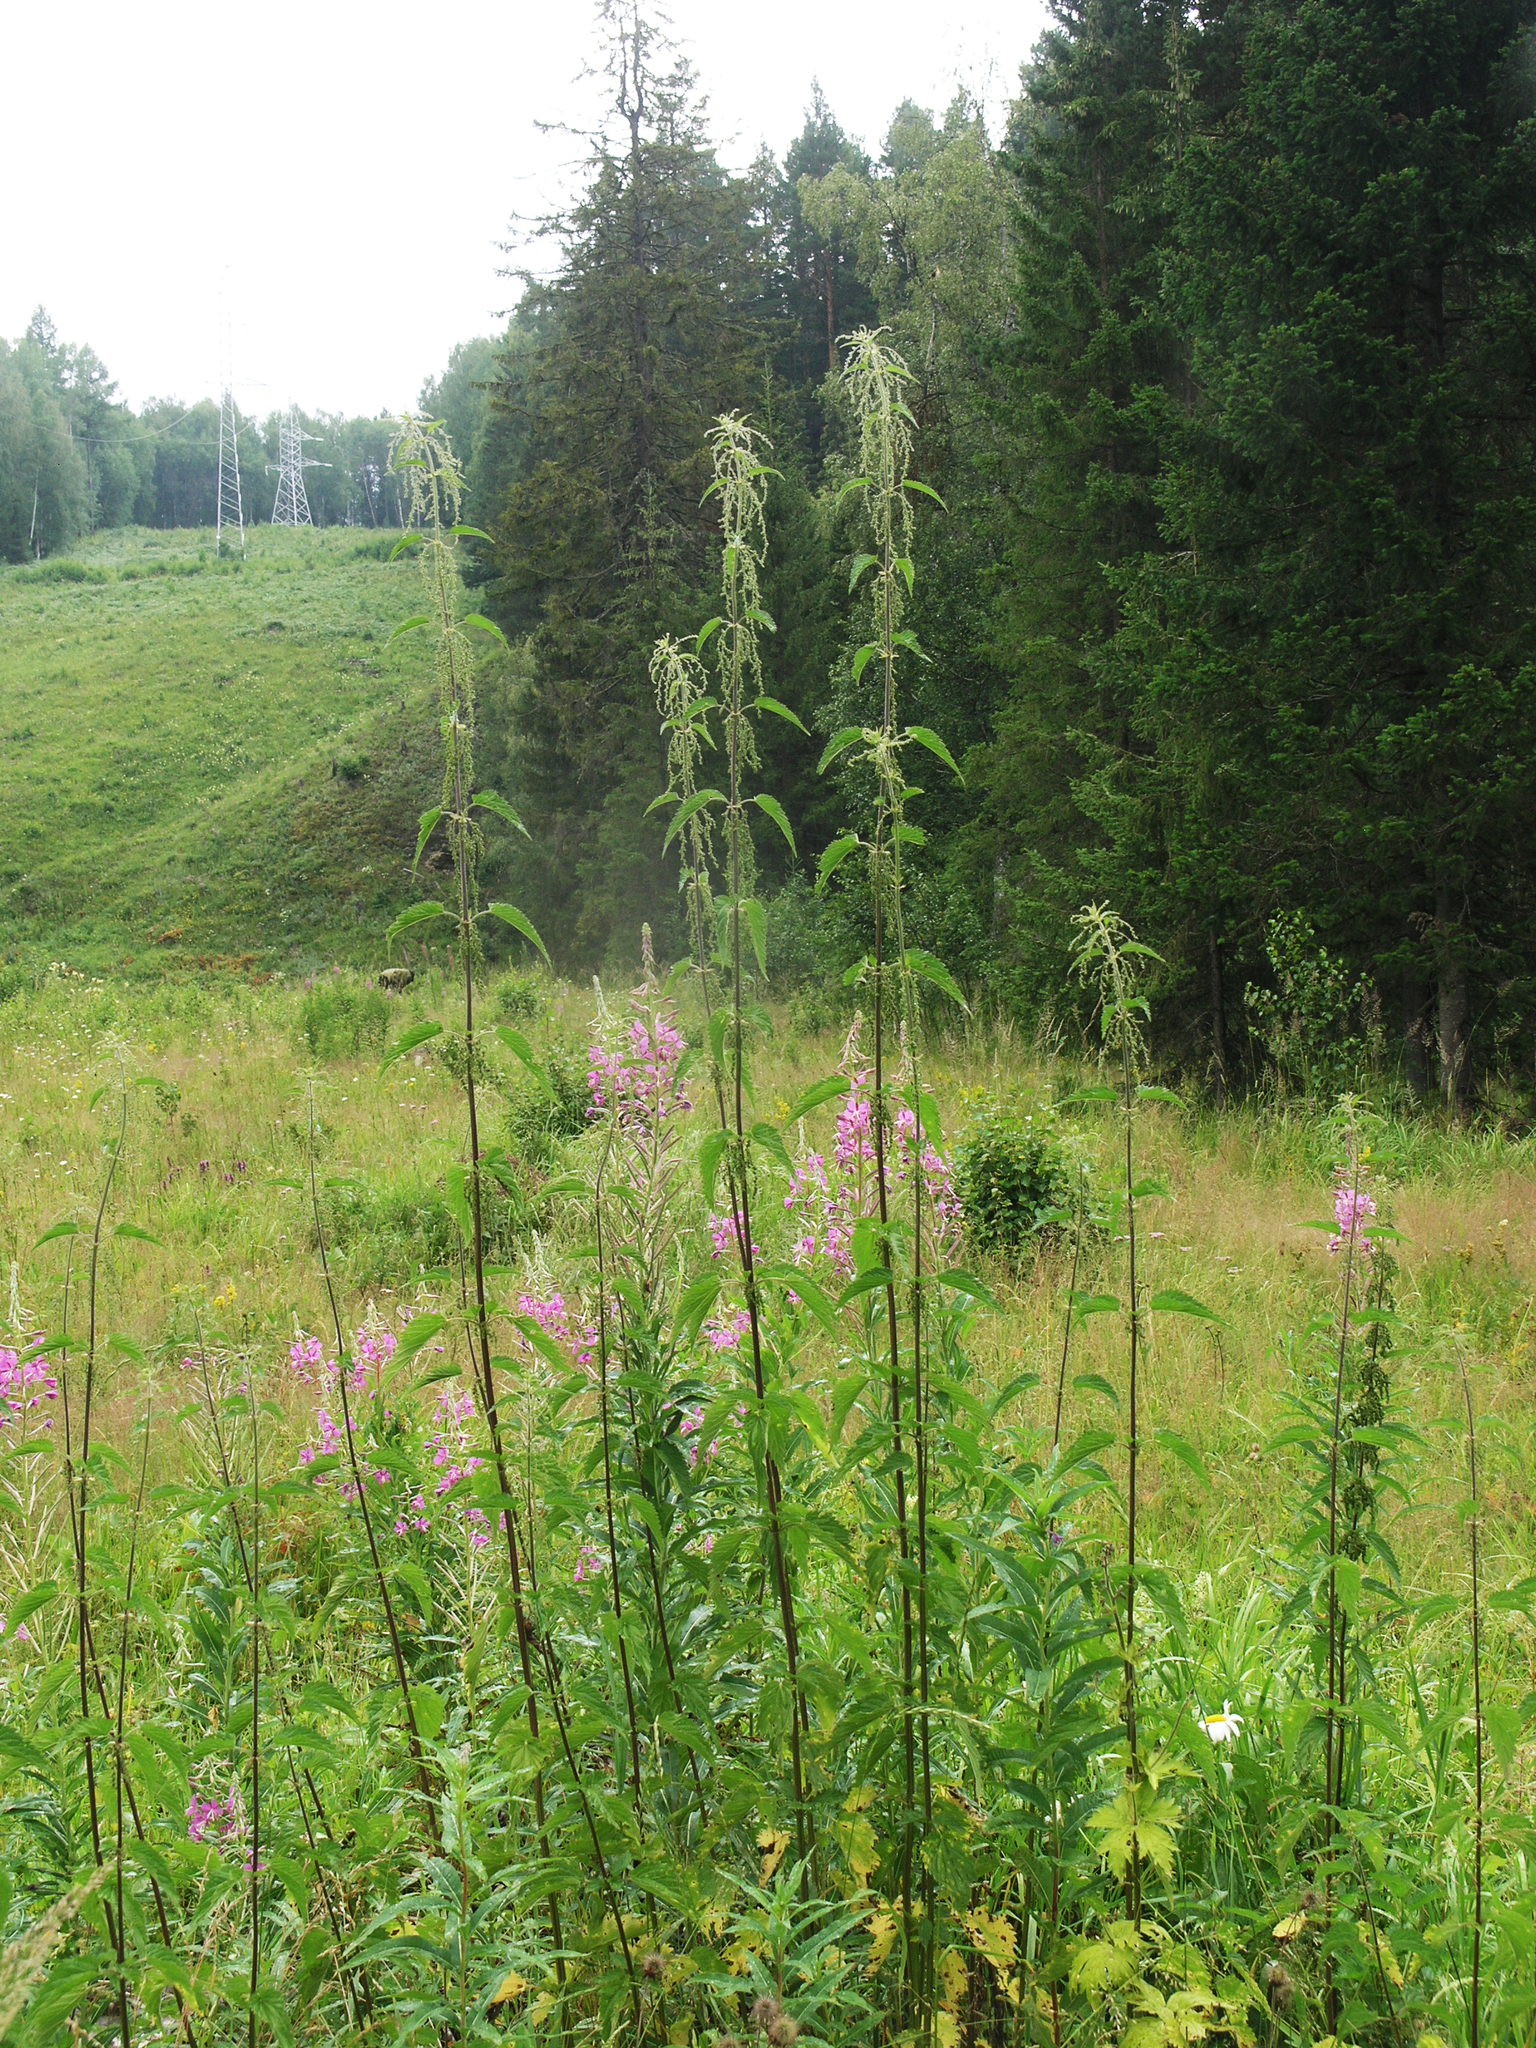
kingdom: Plantae
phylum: Tracheophyta
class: Magnoliopsida
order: Rosales
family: Urticaceae
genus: Urtica
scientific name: Urtica dioica
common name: Common nettle
